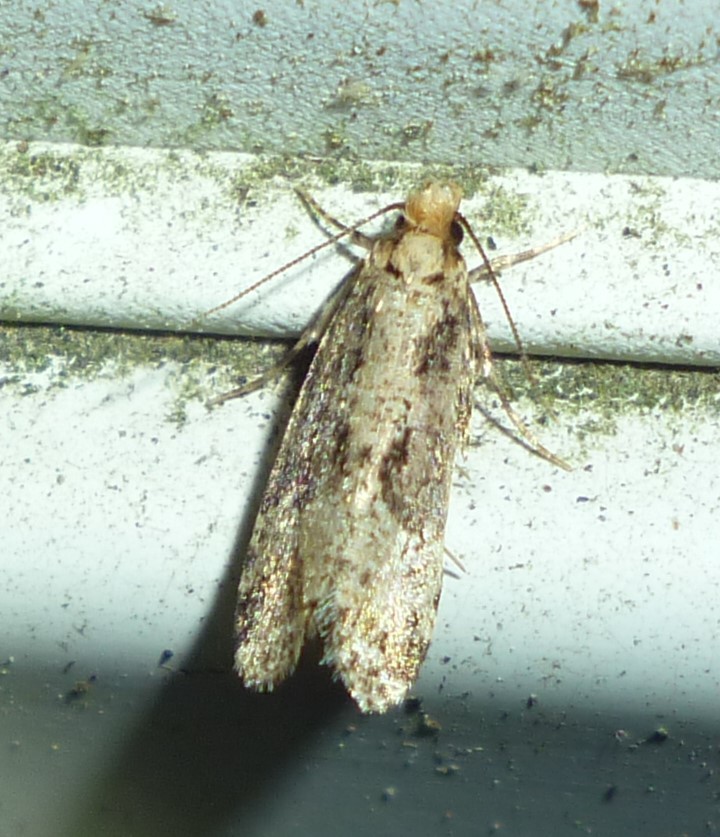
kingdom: Animalia
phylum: Arthropoda
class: Insecta
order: Lepidoptera
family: Tineidae
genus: Scardiella
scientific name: Scardiella approximatella
